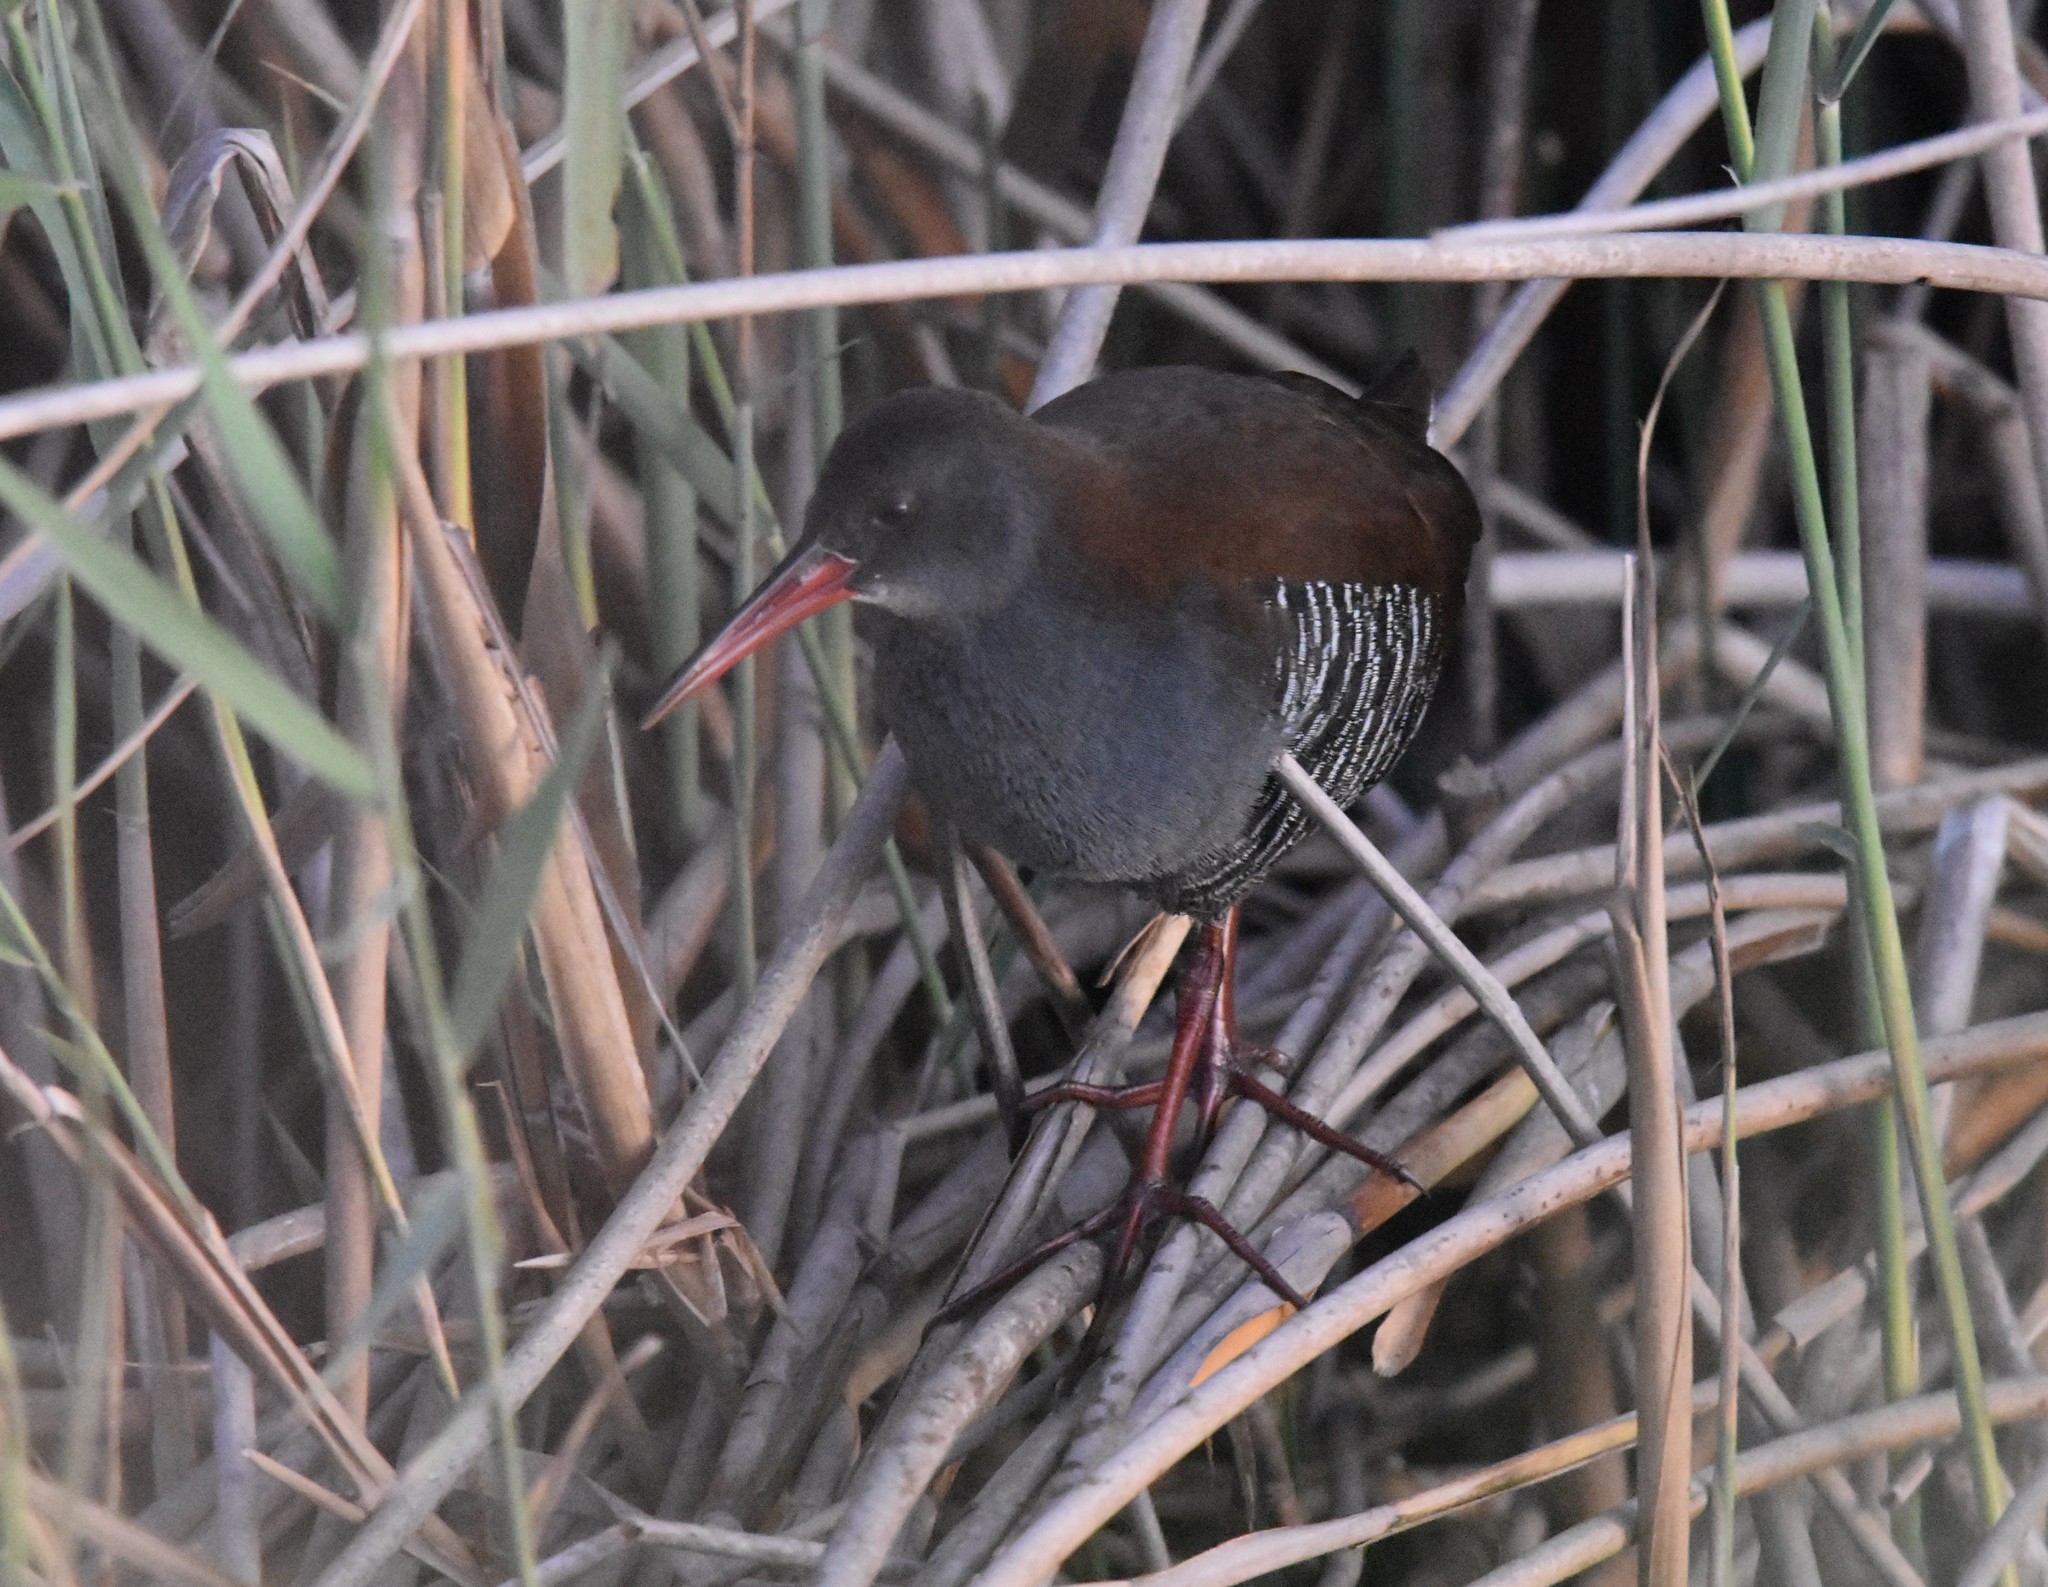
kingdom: Animalia
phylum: Chordata
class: Aves
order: Gruiformes
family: Rallidae
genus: Rallus
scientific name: Rallus caerulescens
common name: African rail
